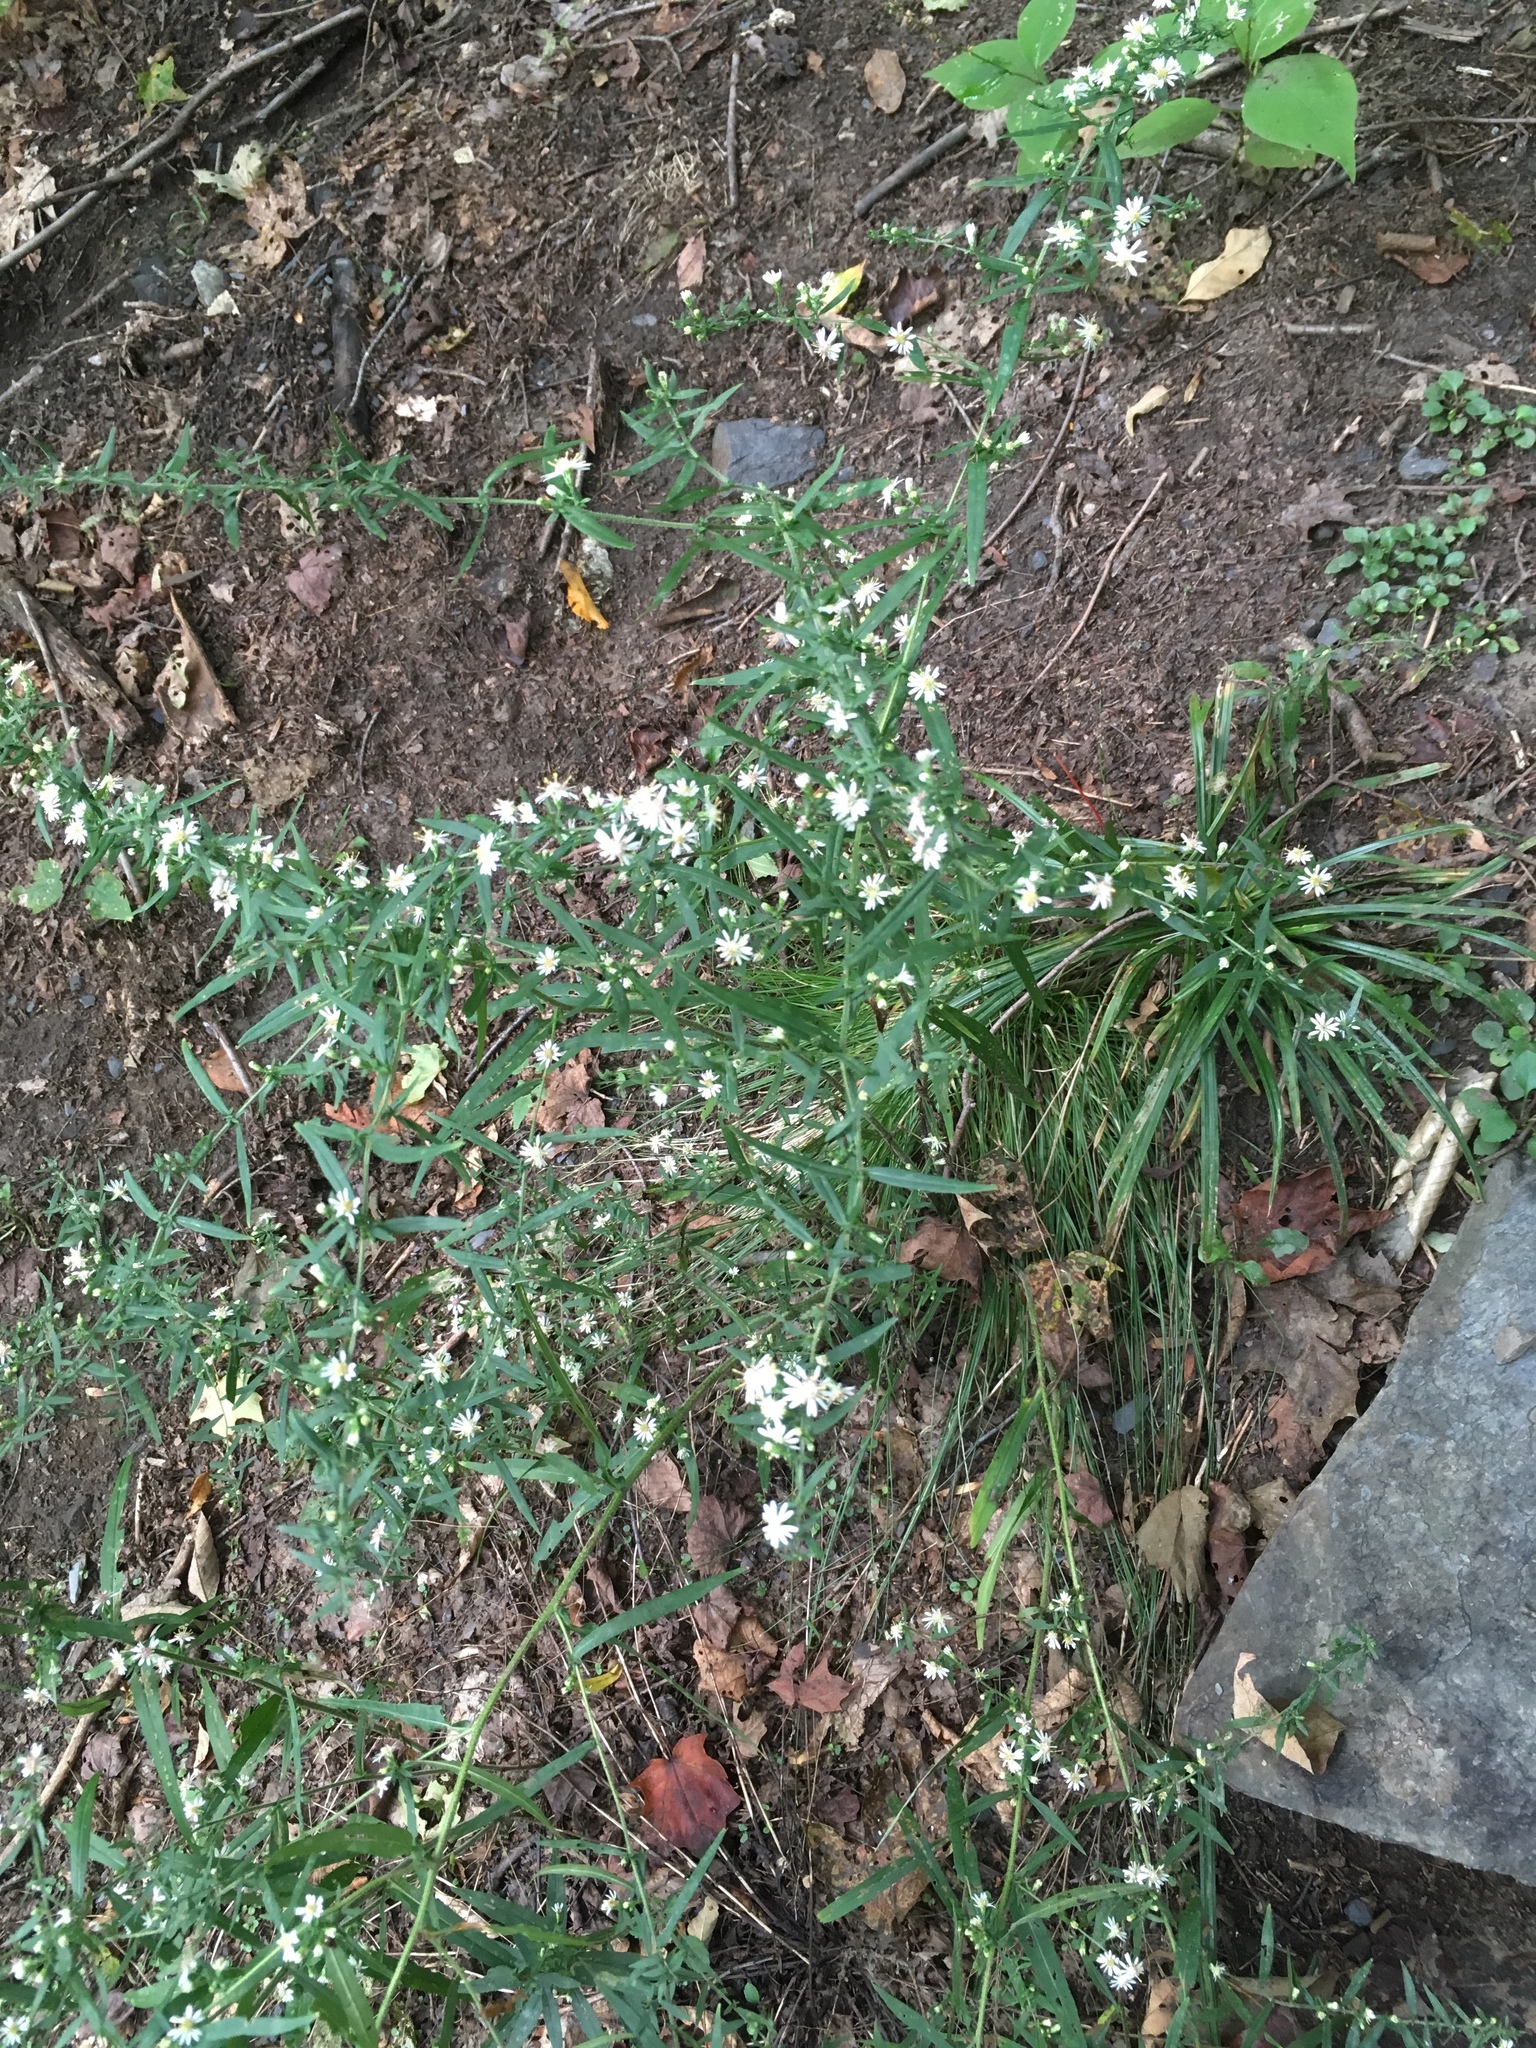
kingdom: Plantae
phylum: Tracheophyta
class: Magnoliopsida
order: Asterales
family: Asteraceae
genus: Symphyotrichum
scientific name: Symphyotrichum lateriflorum
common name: Calico aster
